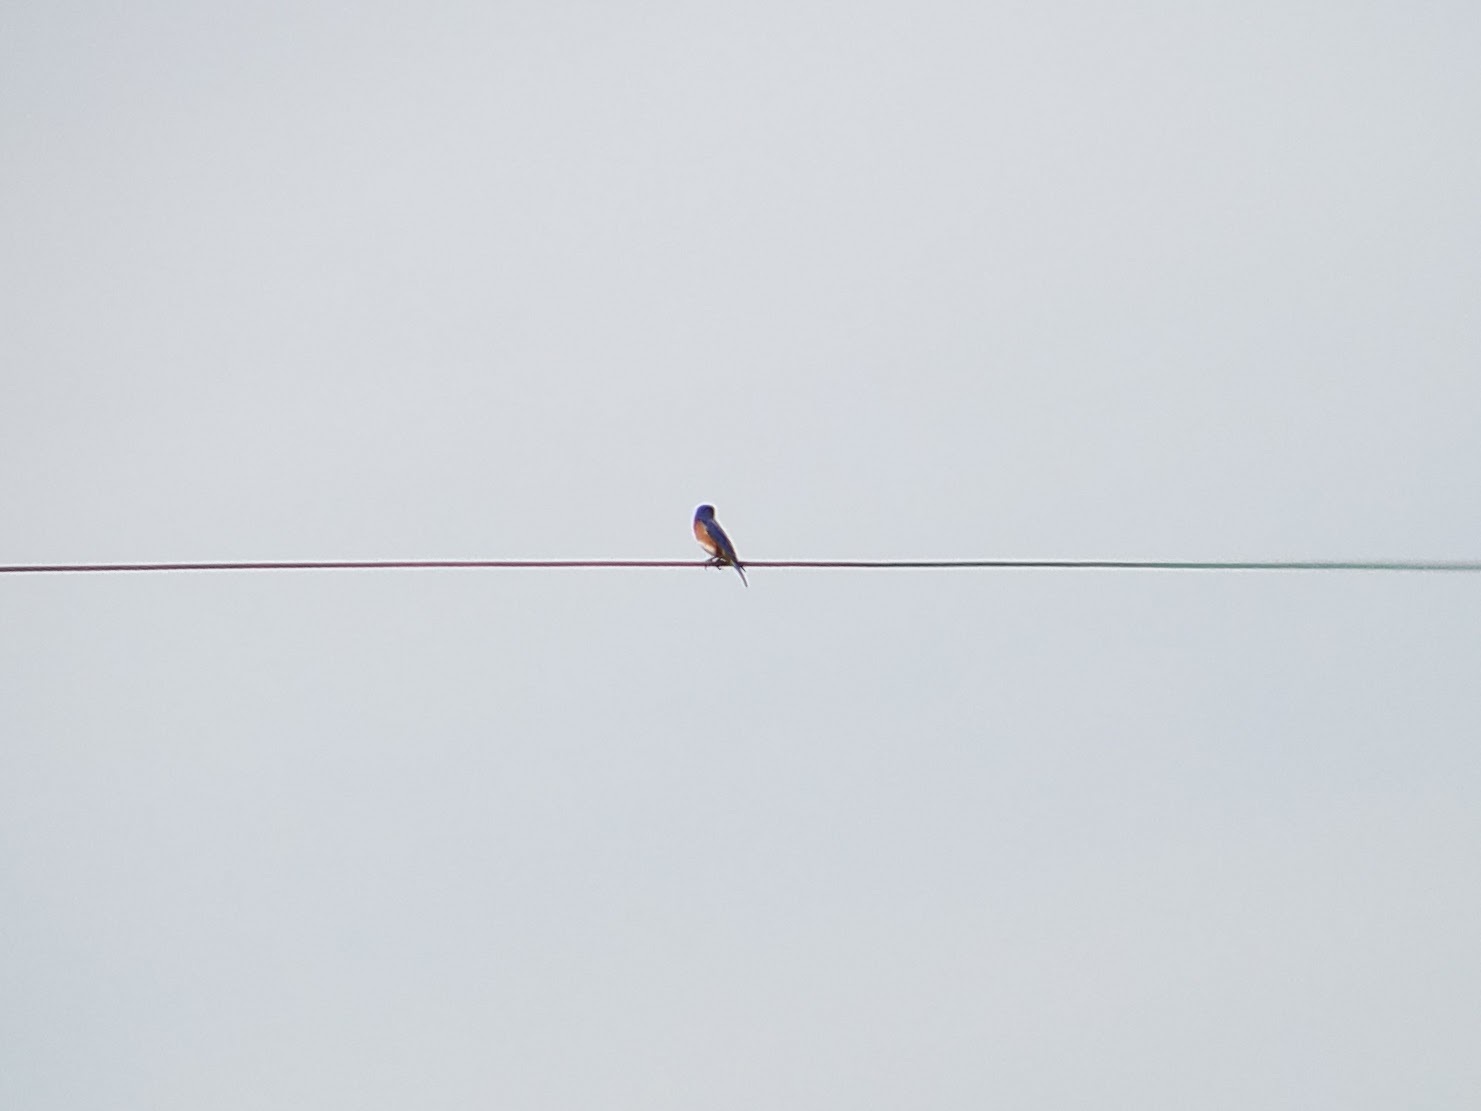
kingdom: Animalia
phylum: Chordata
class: Aves
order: Passeriformes
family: Turdidae
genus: Sialia
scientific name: Sialia sialis
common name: Eastern bluebird
